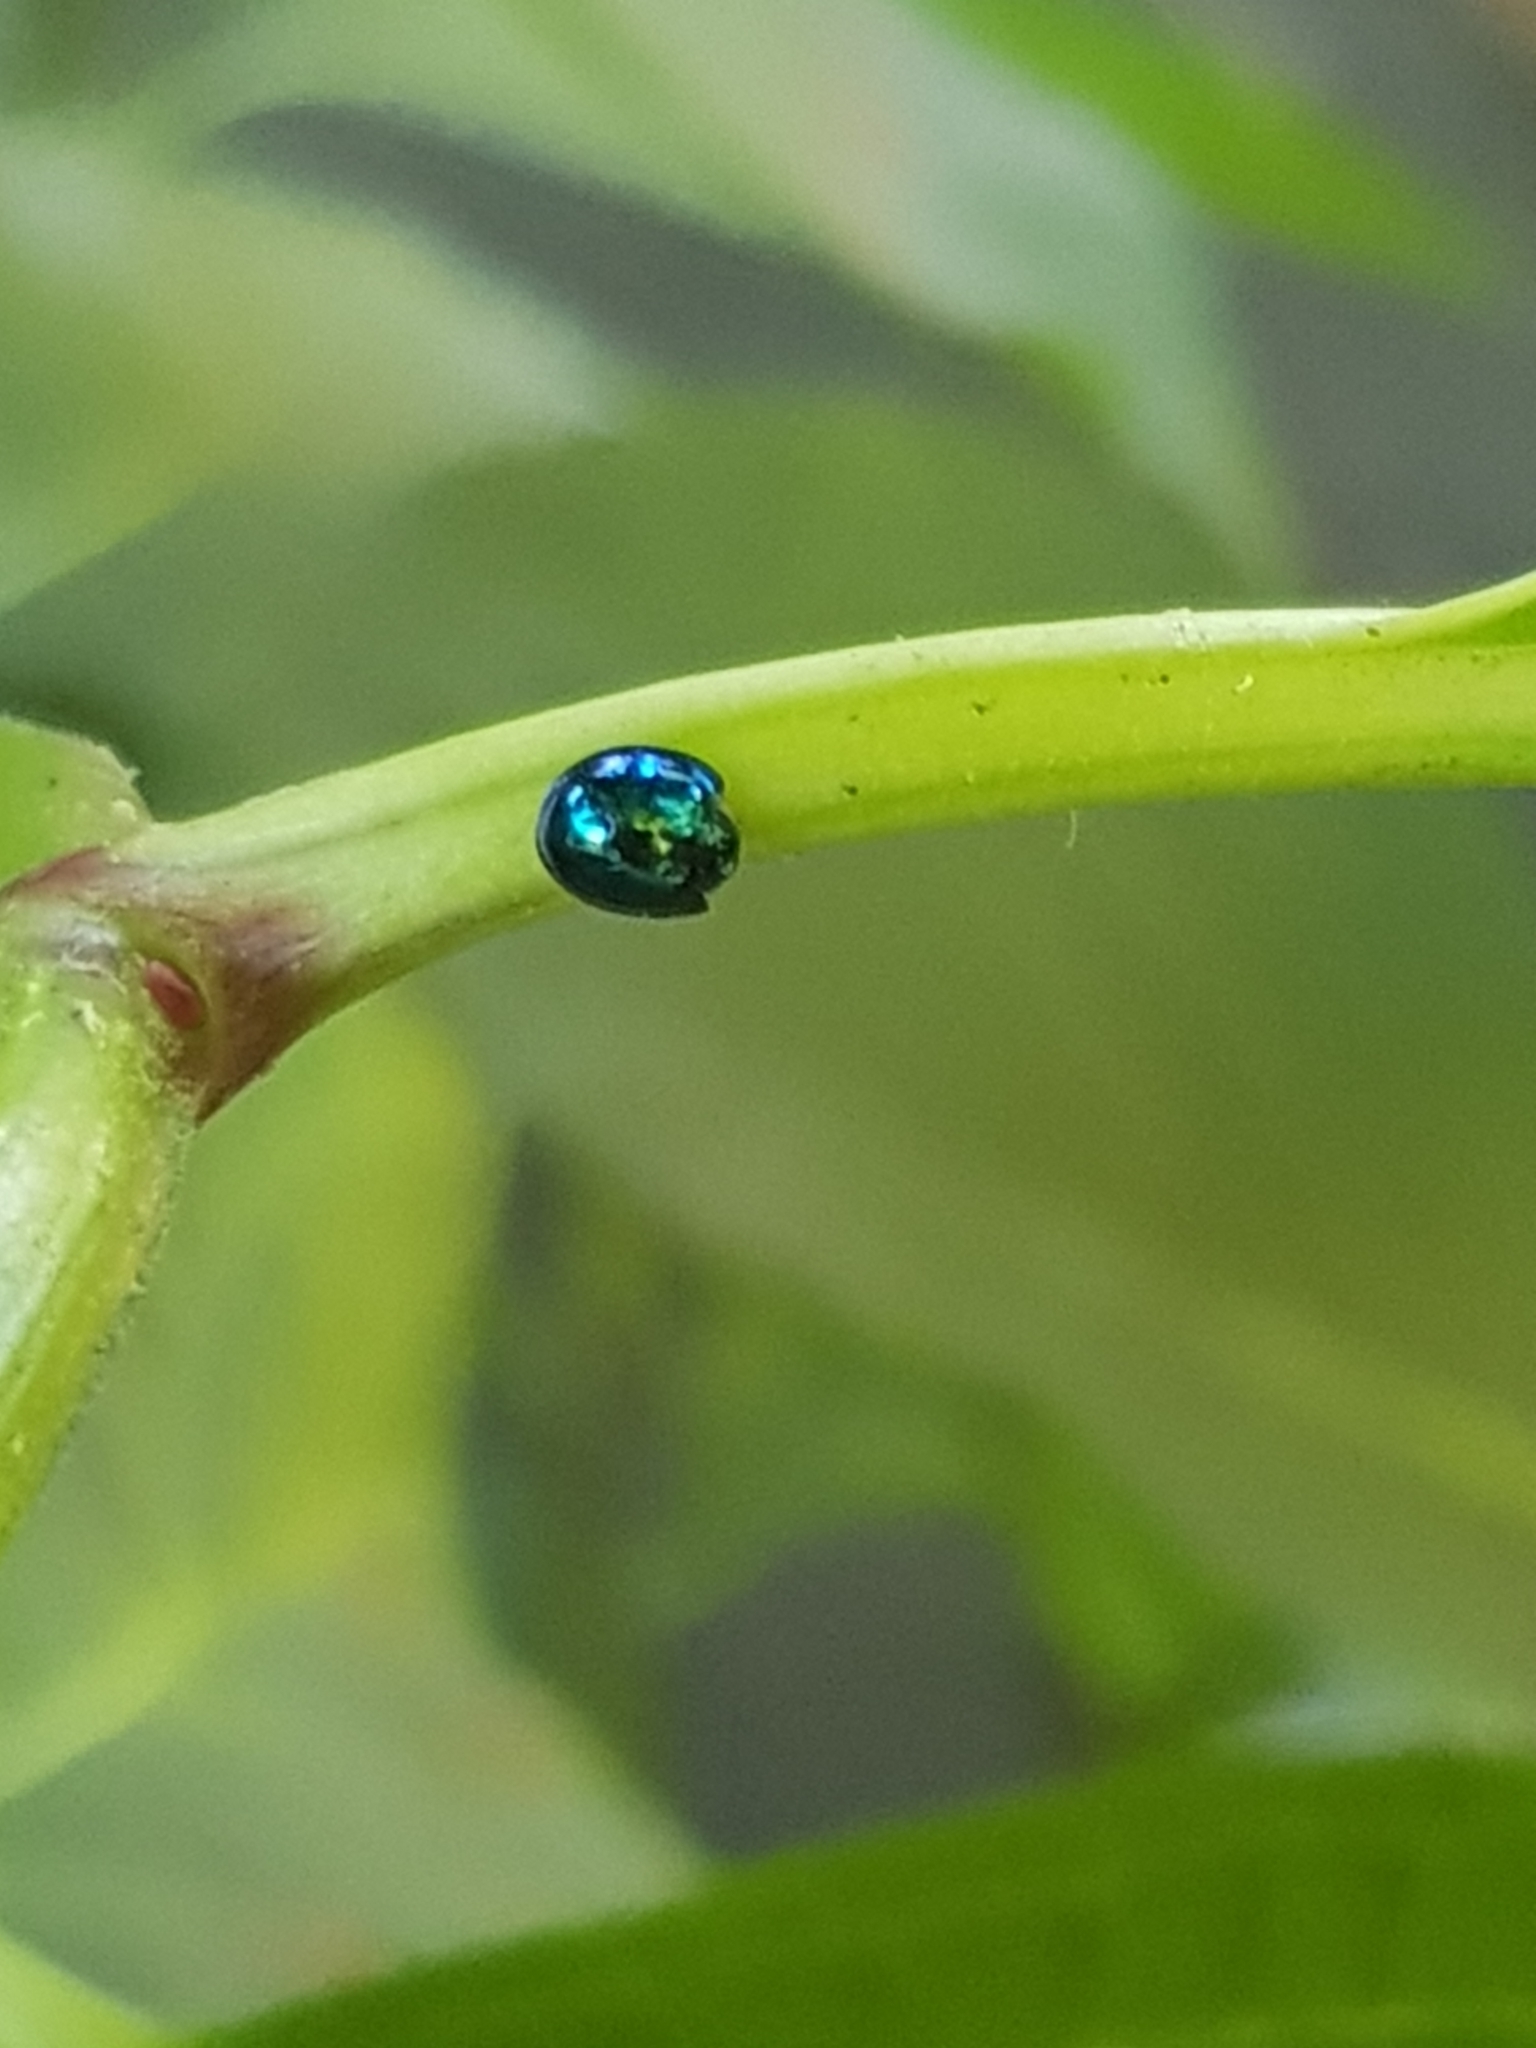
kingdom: Animalia
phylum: Arthropoda
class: Insecta
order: Coleoptera
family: Coccinellidae
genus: Halmus
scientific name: Halmus chalybeus
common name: Steel blue ladybird beetle
